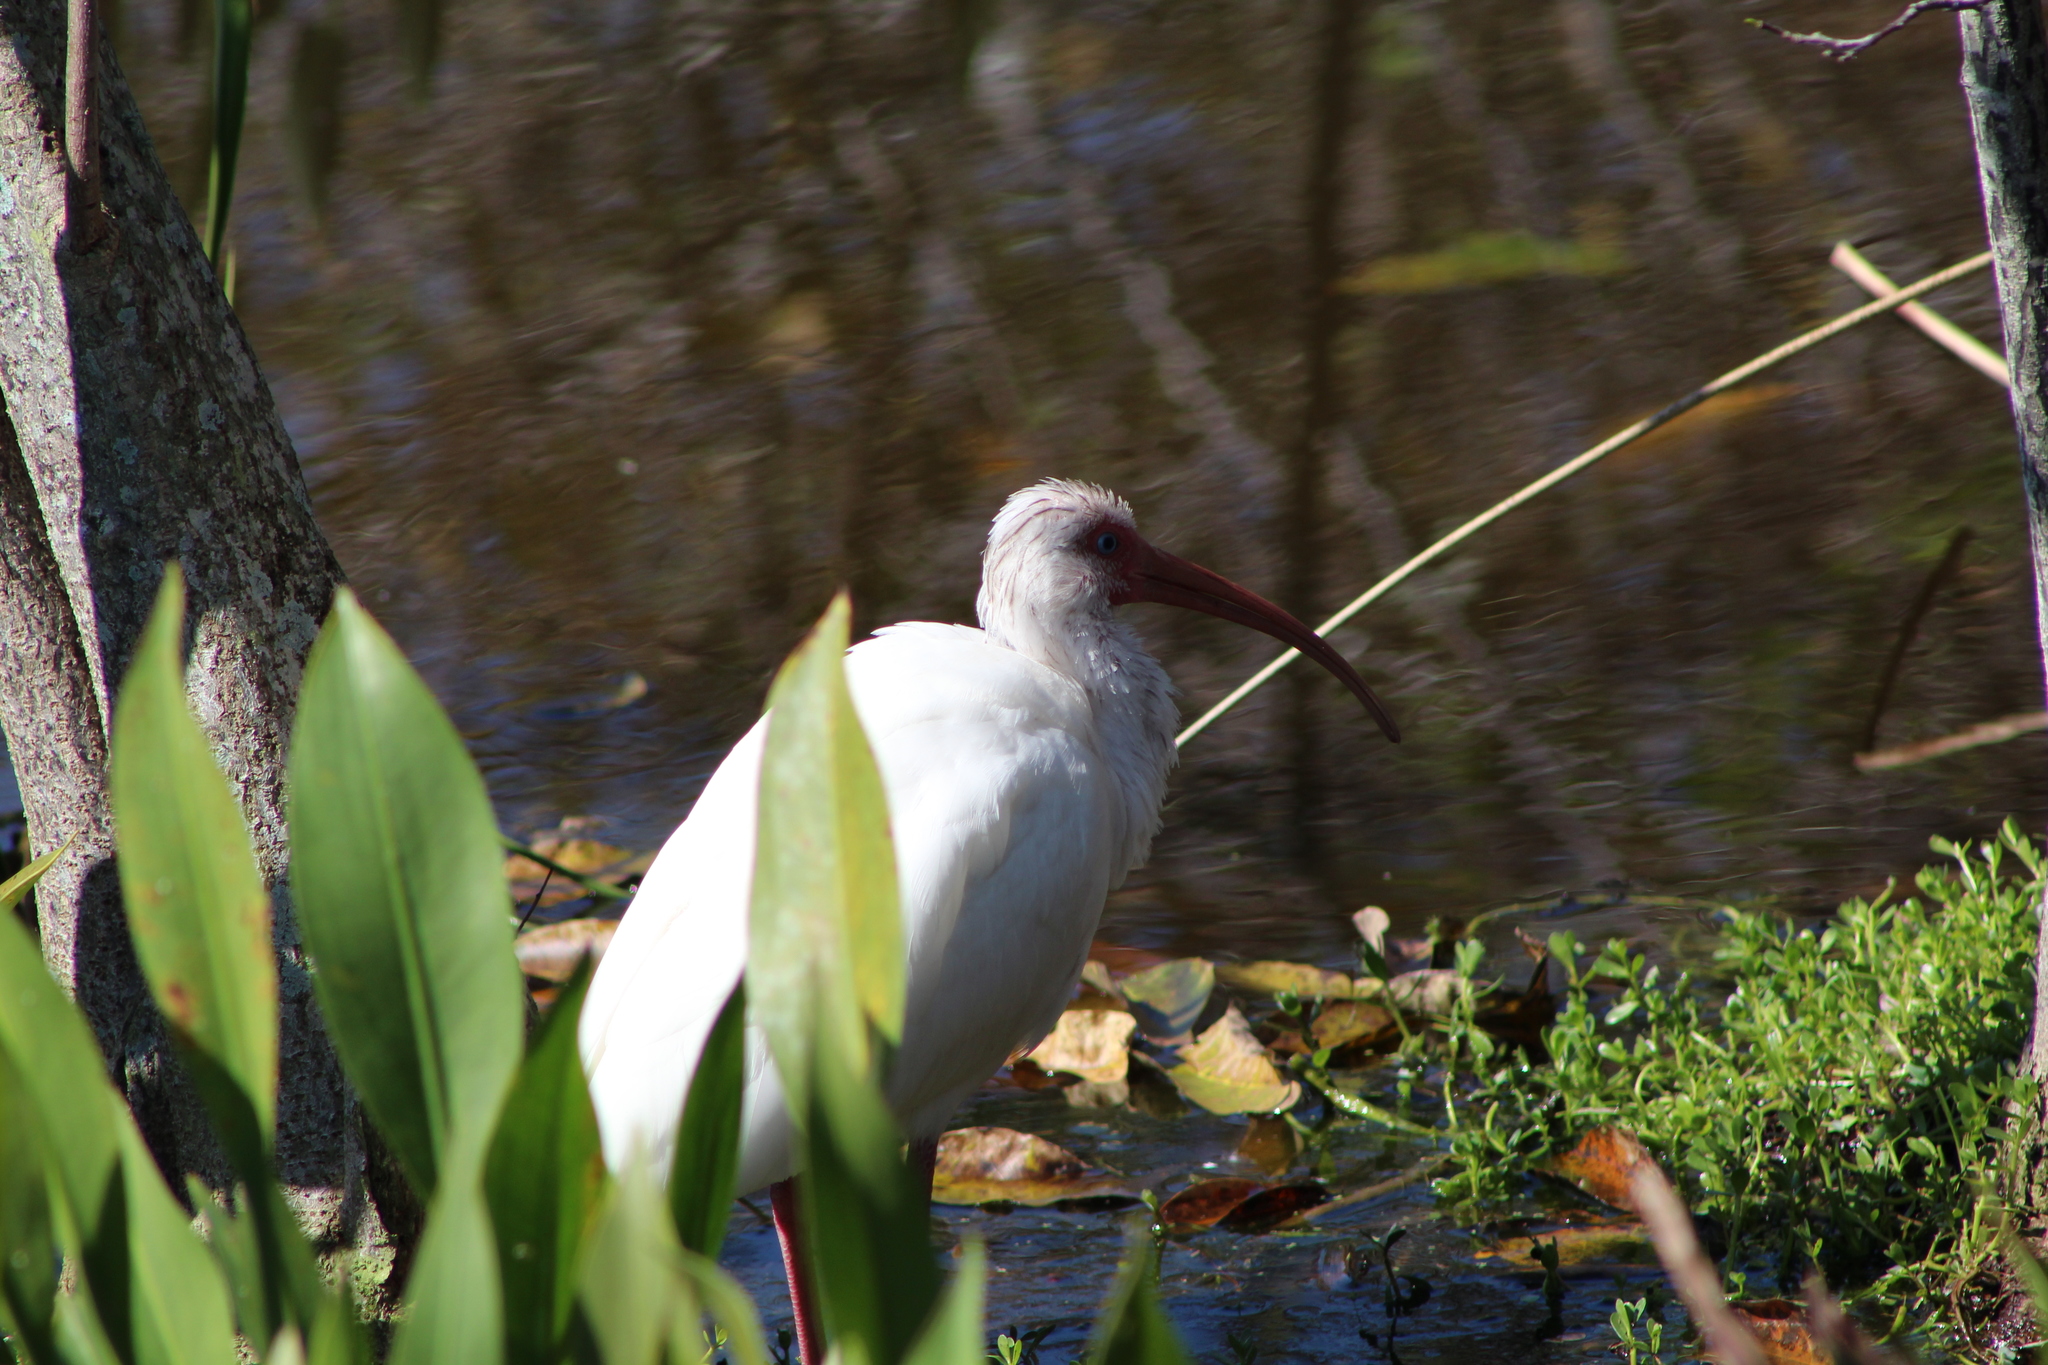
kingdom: Animalia
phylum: Chordata
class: Aves
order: Pelecaniformes
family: Threskiornithidae
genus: Eudocimus
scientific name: Eudocimus albus
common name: White ibis
